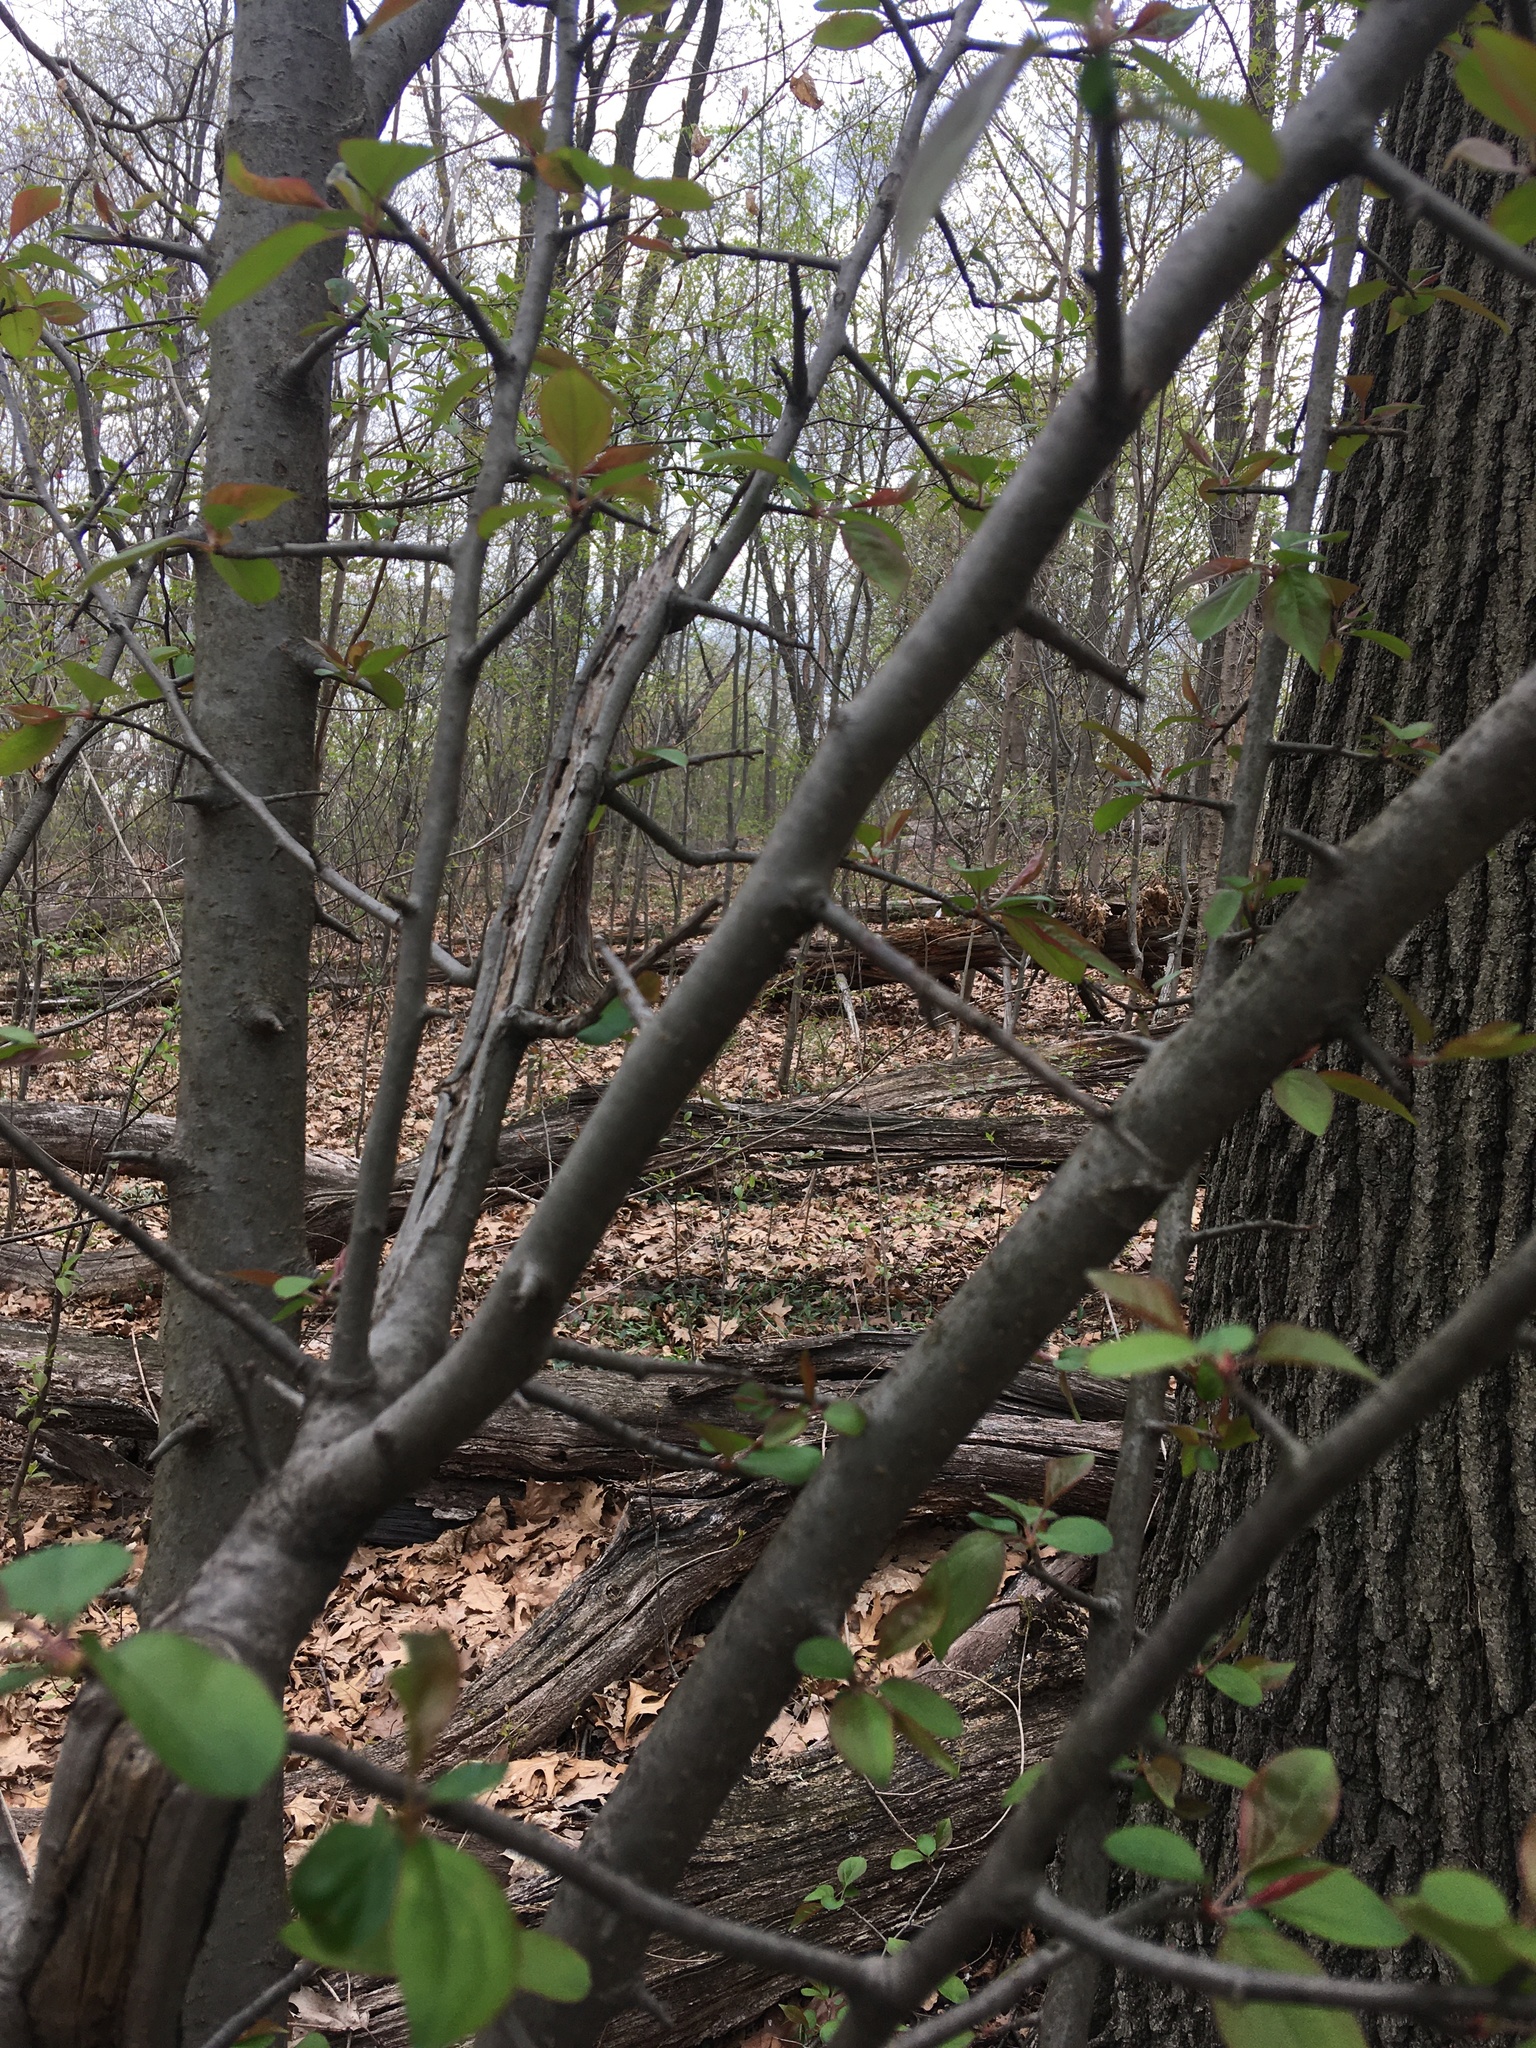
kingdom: Plantae
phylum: Tracheophyta
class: Magnoliopsida
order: Rosales
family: Rosaceae
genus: Malus
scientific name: Malus hupehensis
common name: Chinese crab apple
